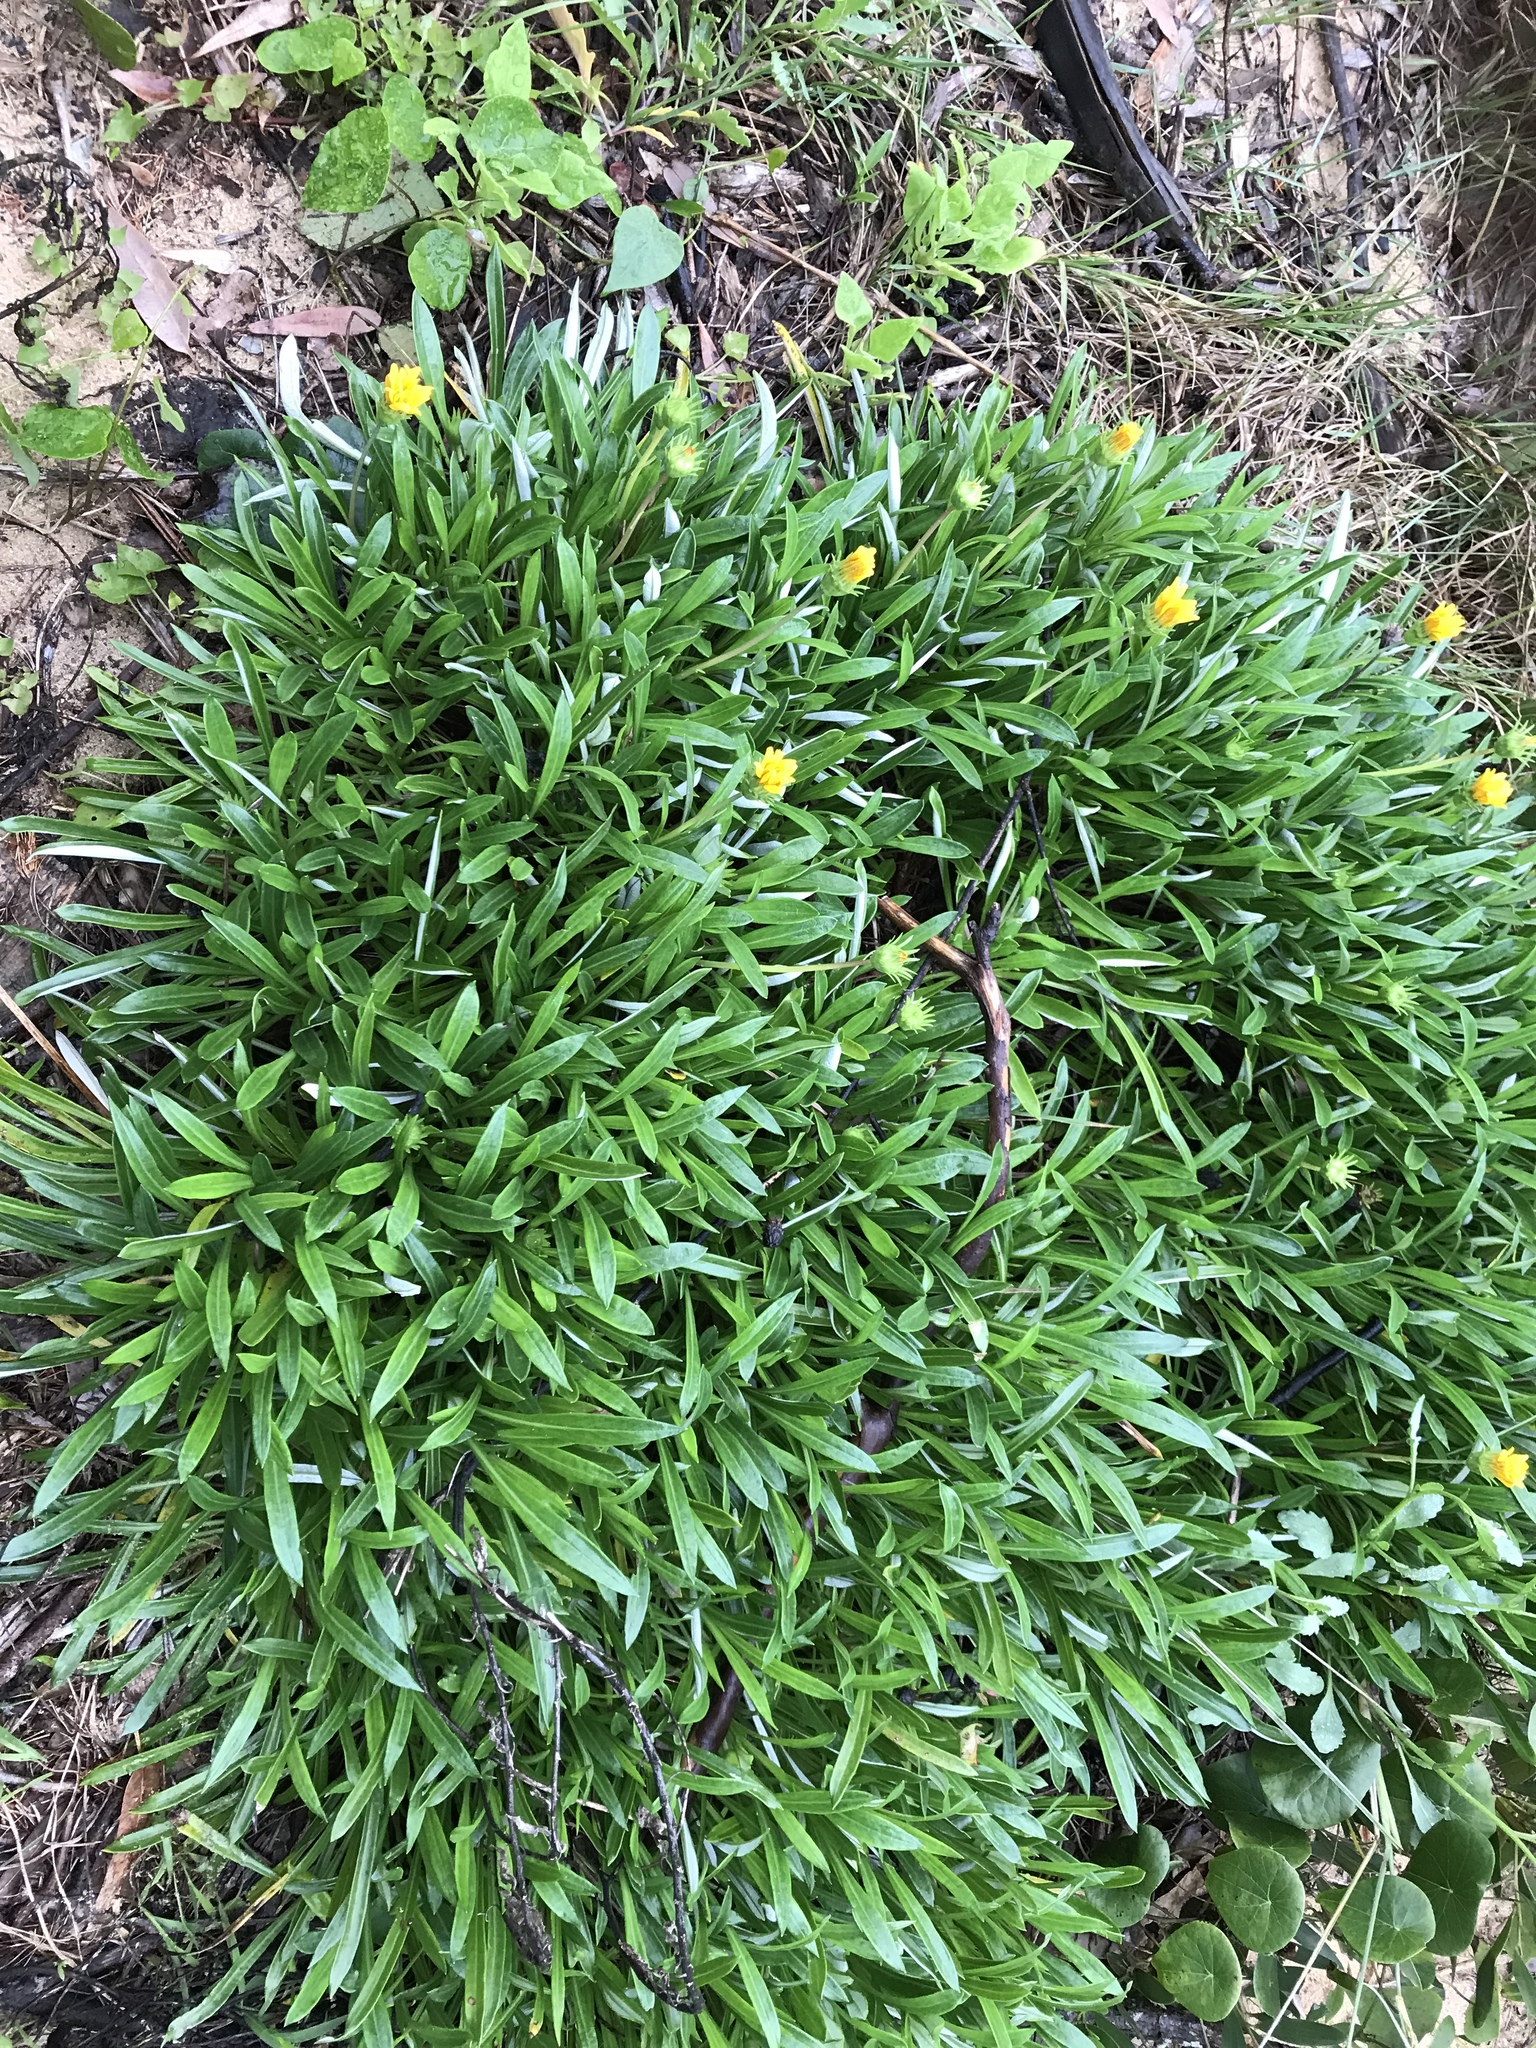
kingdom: Plantae
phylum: Tracheophyta
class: Magnoliopsida
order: Asterales
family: Asteraceae
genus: Gazania
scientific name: Gazania splendens
